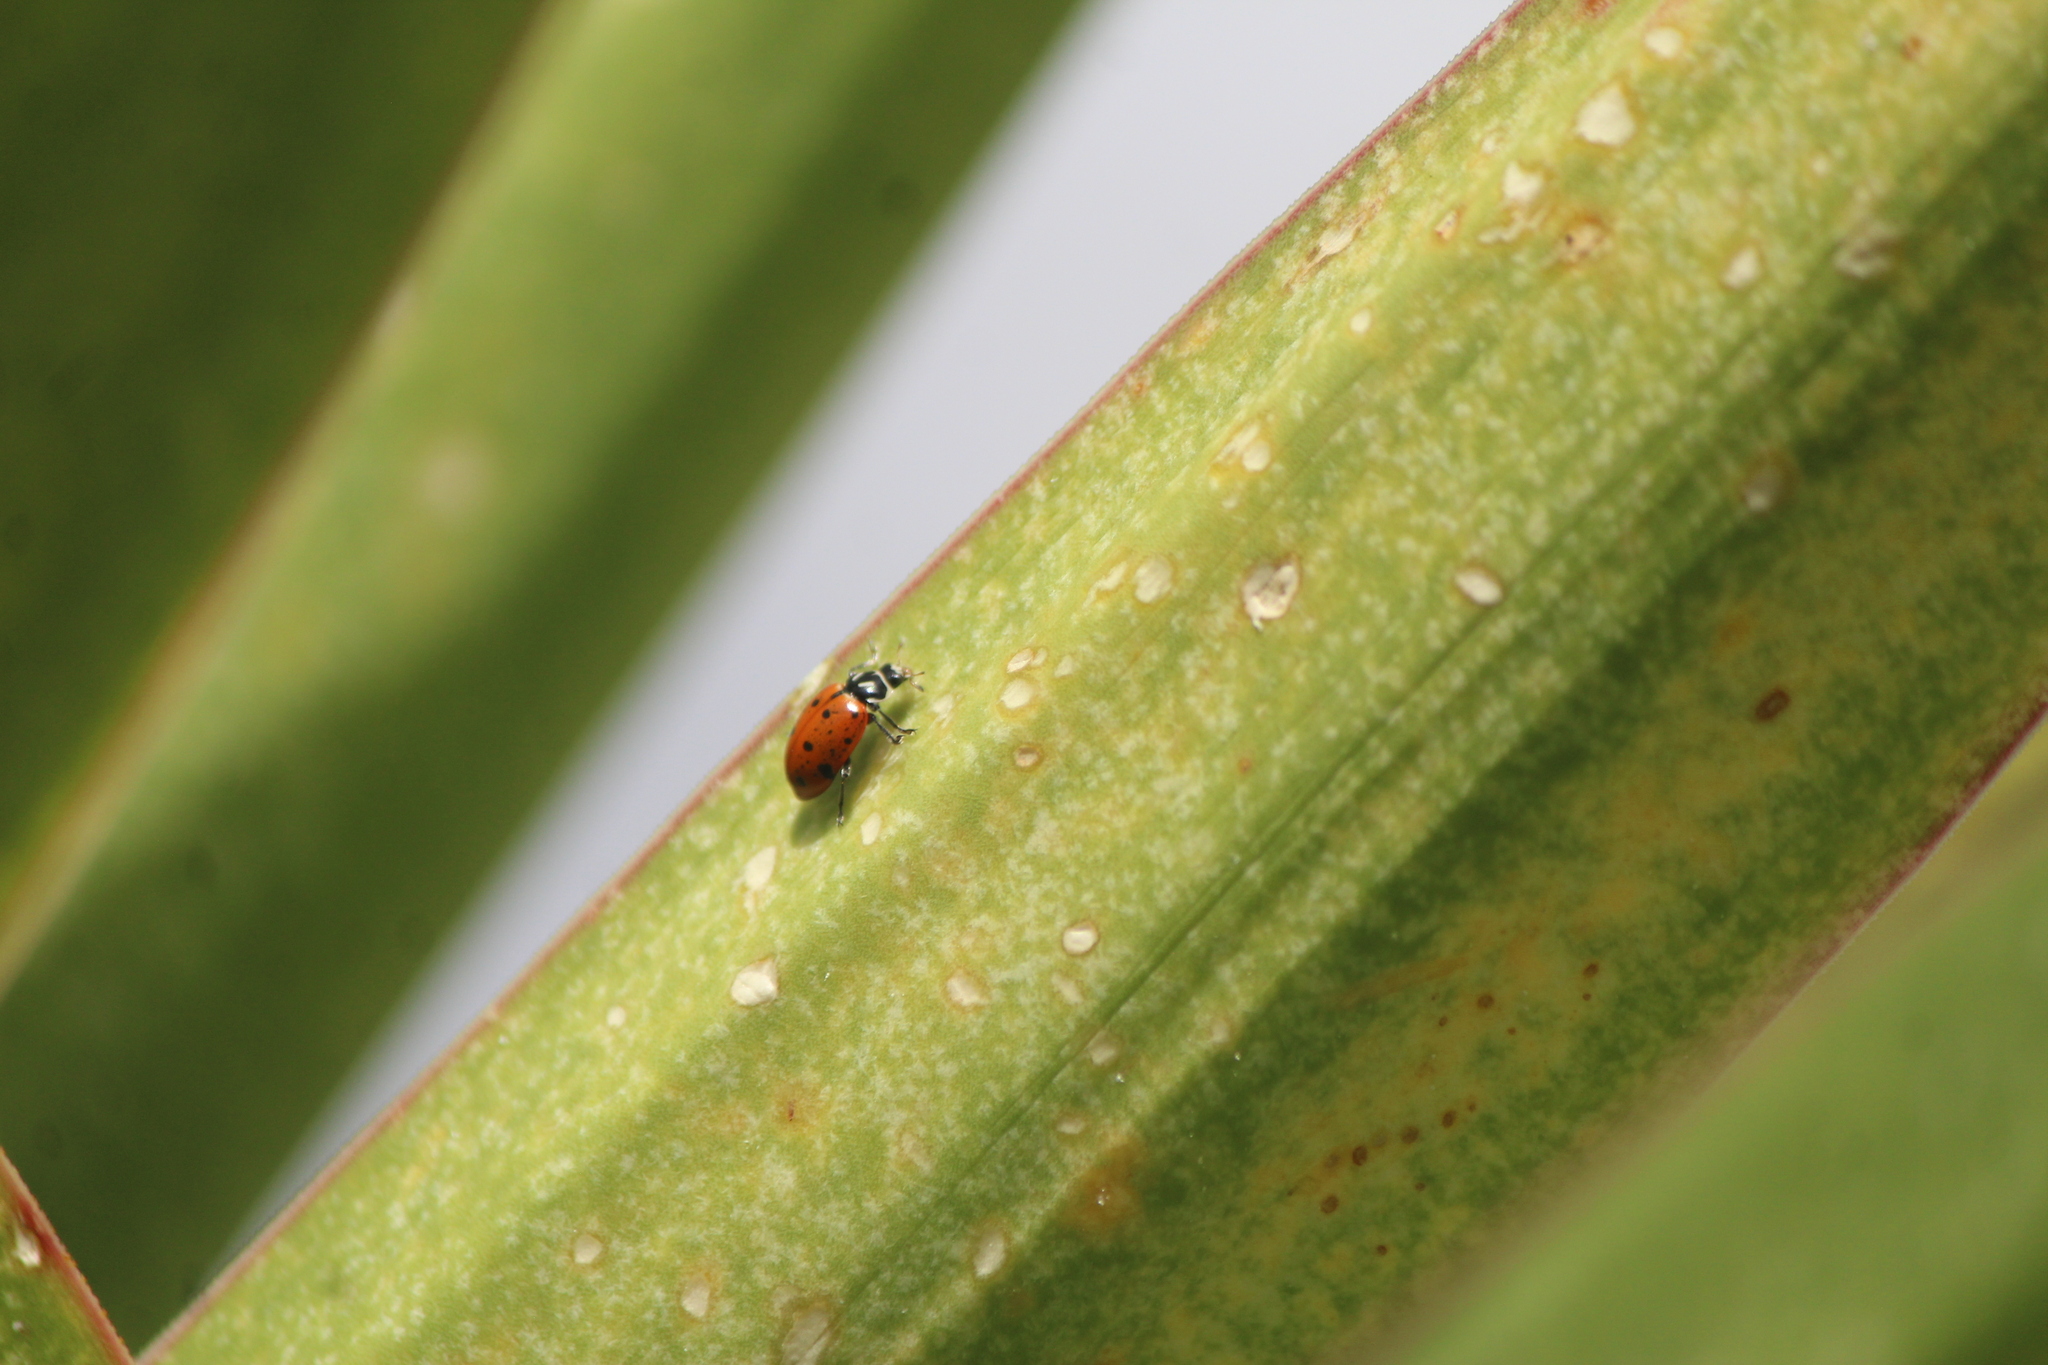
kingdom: Animalia
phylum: Arthropoda
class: Insecta
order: Coleoptera
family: Coccinellidae
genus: Hippodamia
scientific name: Hippodamia convergens
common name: Convergent lady beetle
